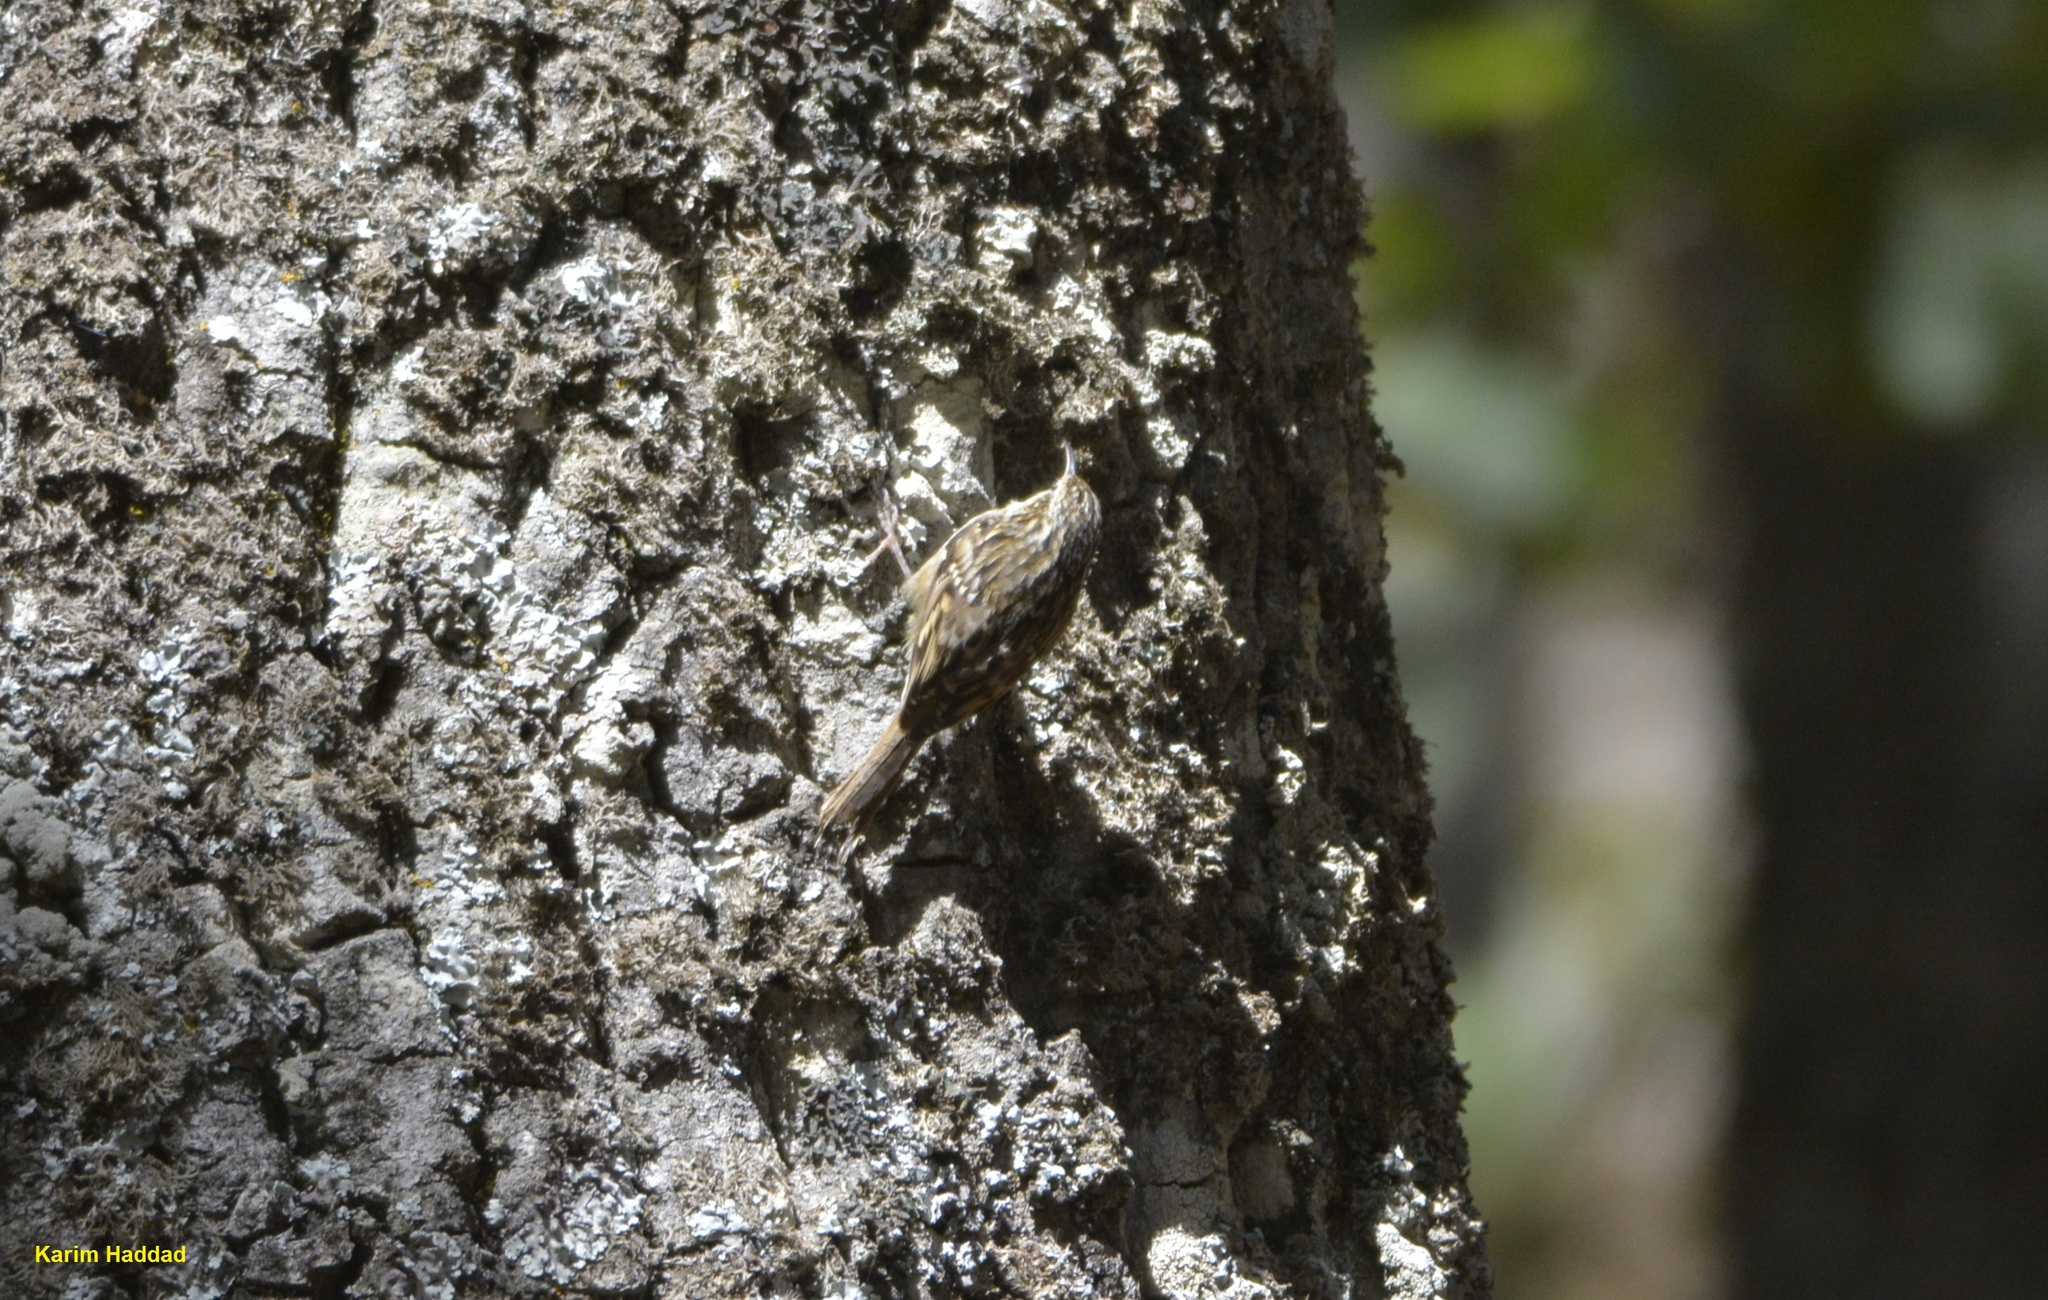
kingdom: Animalia
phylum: Chordata
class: Aves
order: Passeriformes
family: Certhiidae
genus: Certhia
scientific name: Certhia brachydactyla
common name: Short-toed treecreeper
